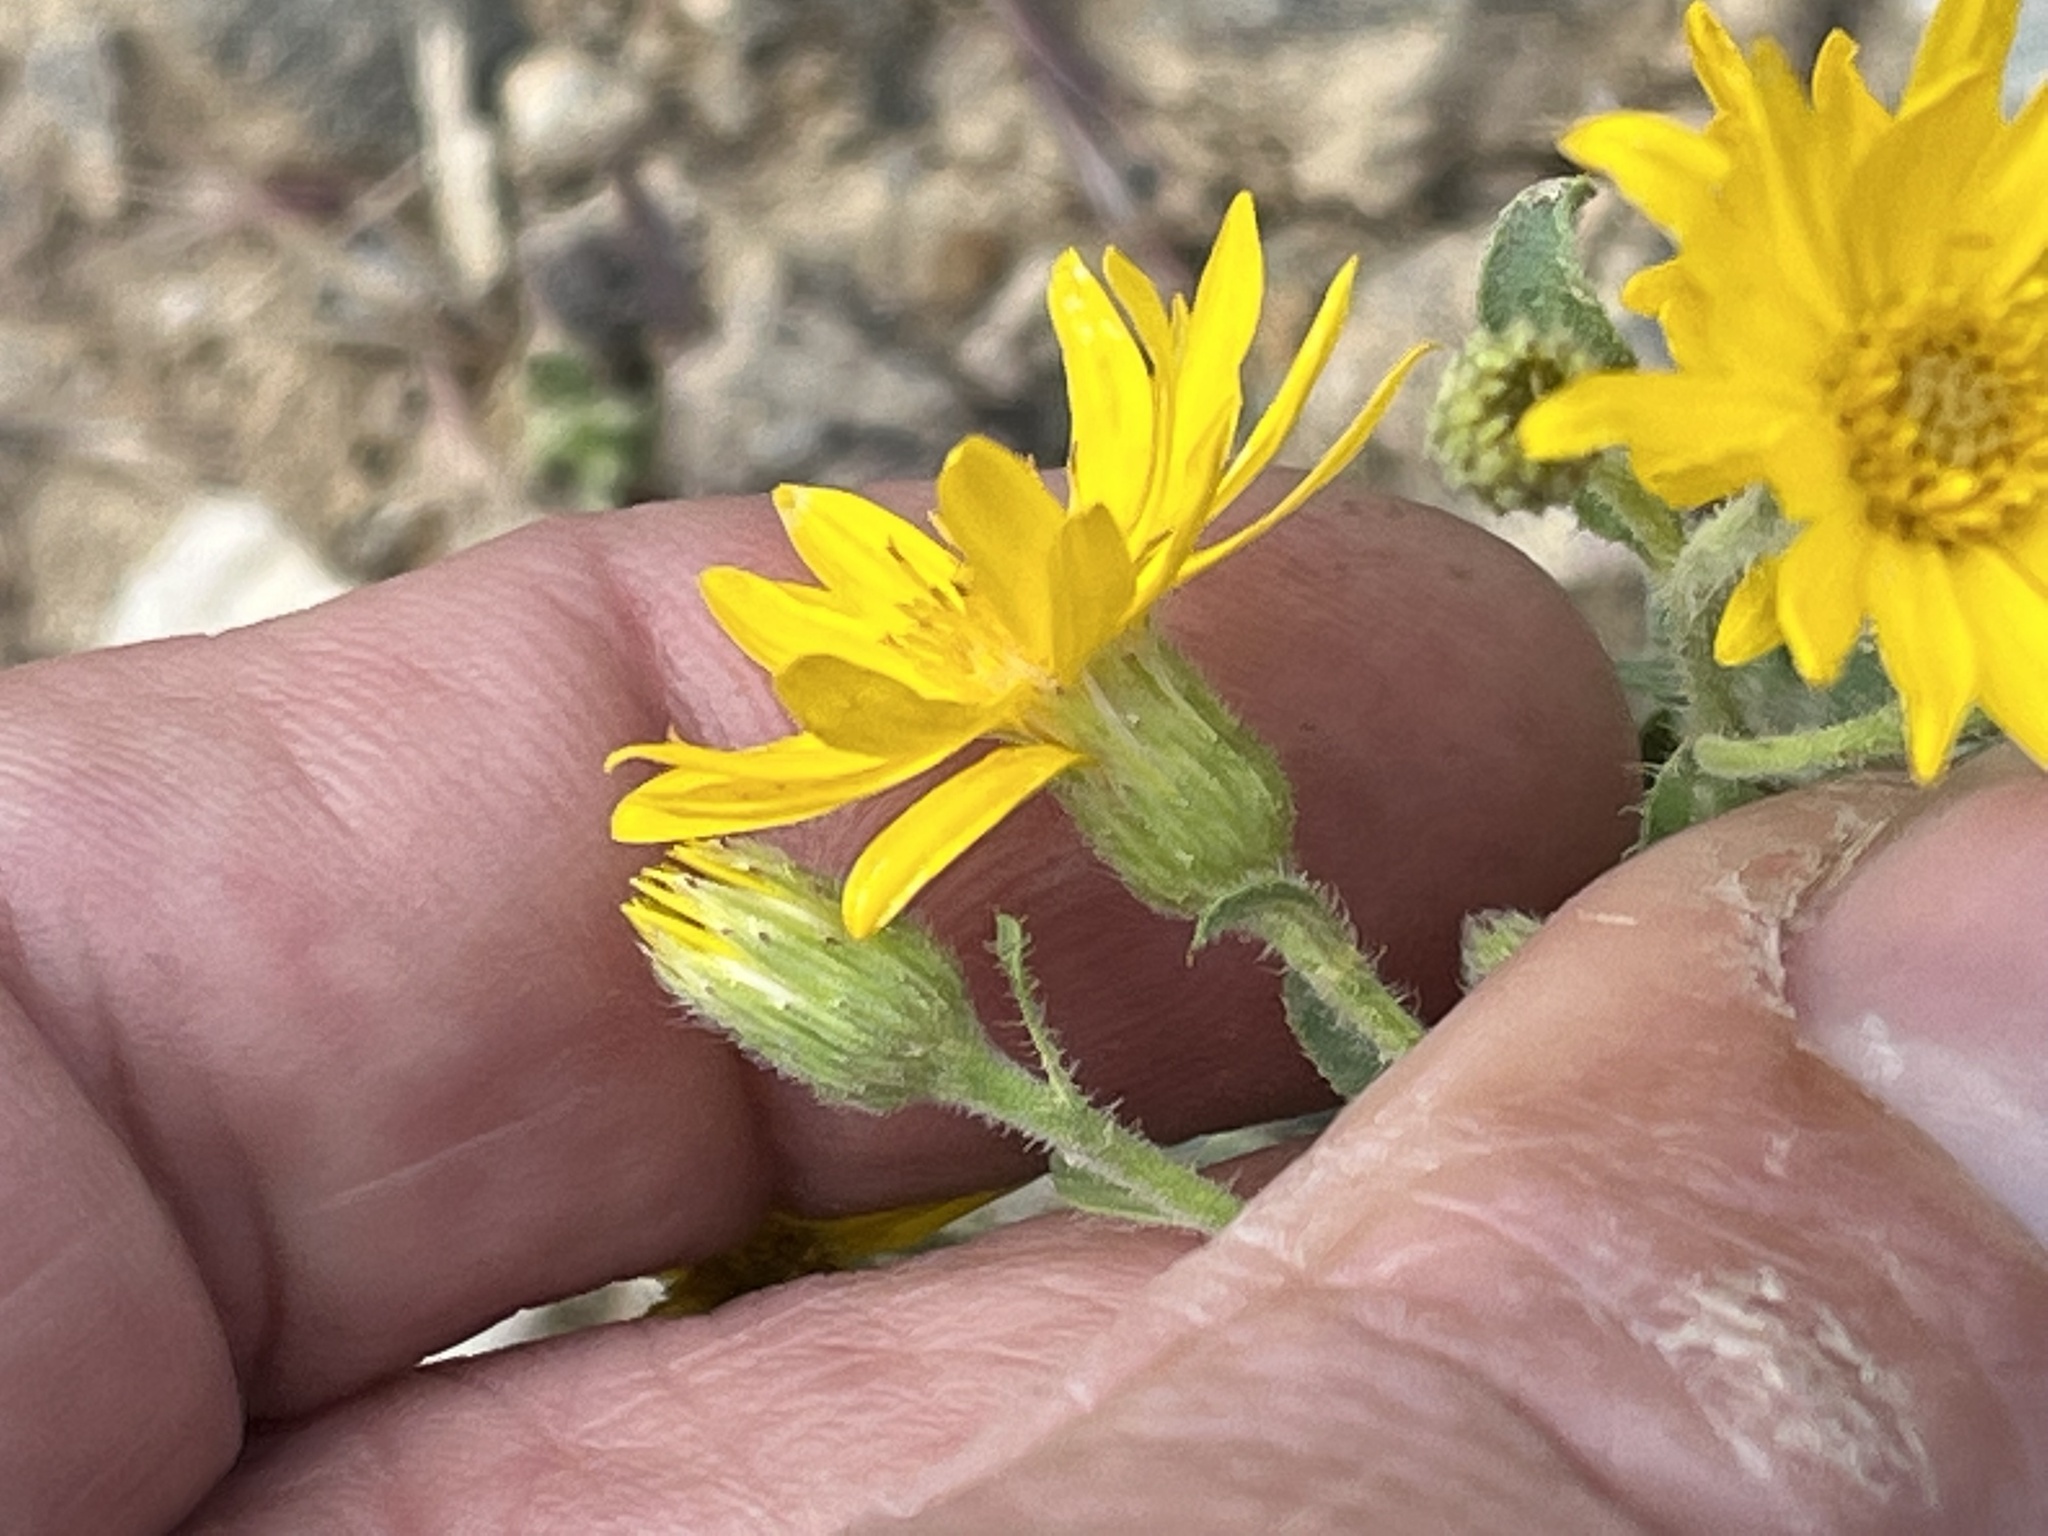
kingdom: Plantae
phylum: Tracheophyta
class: Magnoliopsida
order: Asterales
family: Asteraceae
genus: Heterotheca
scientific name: Heterotheca hispida
